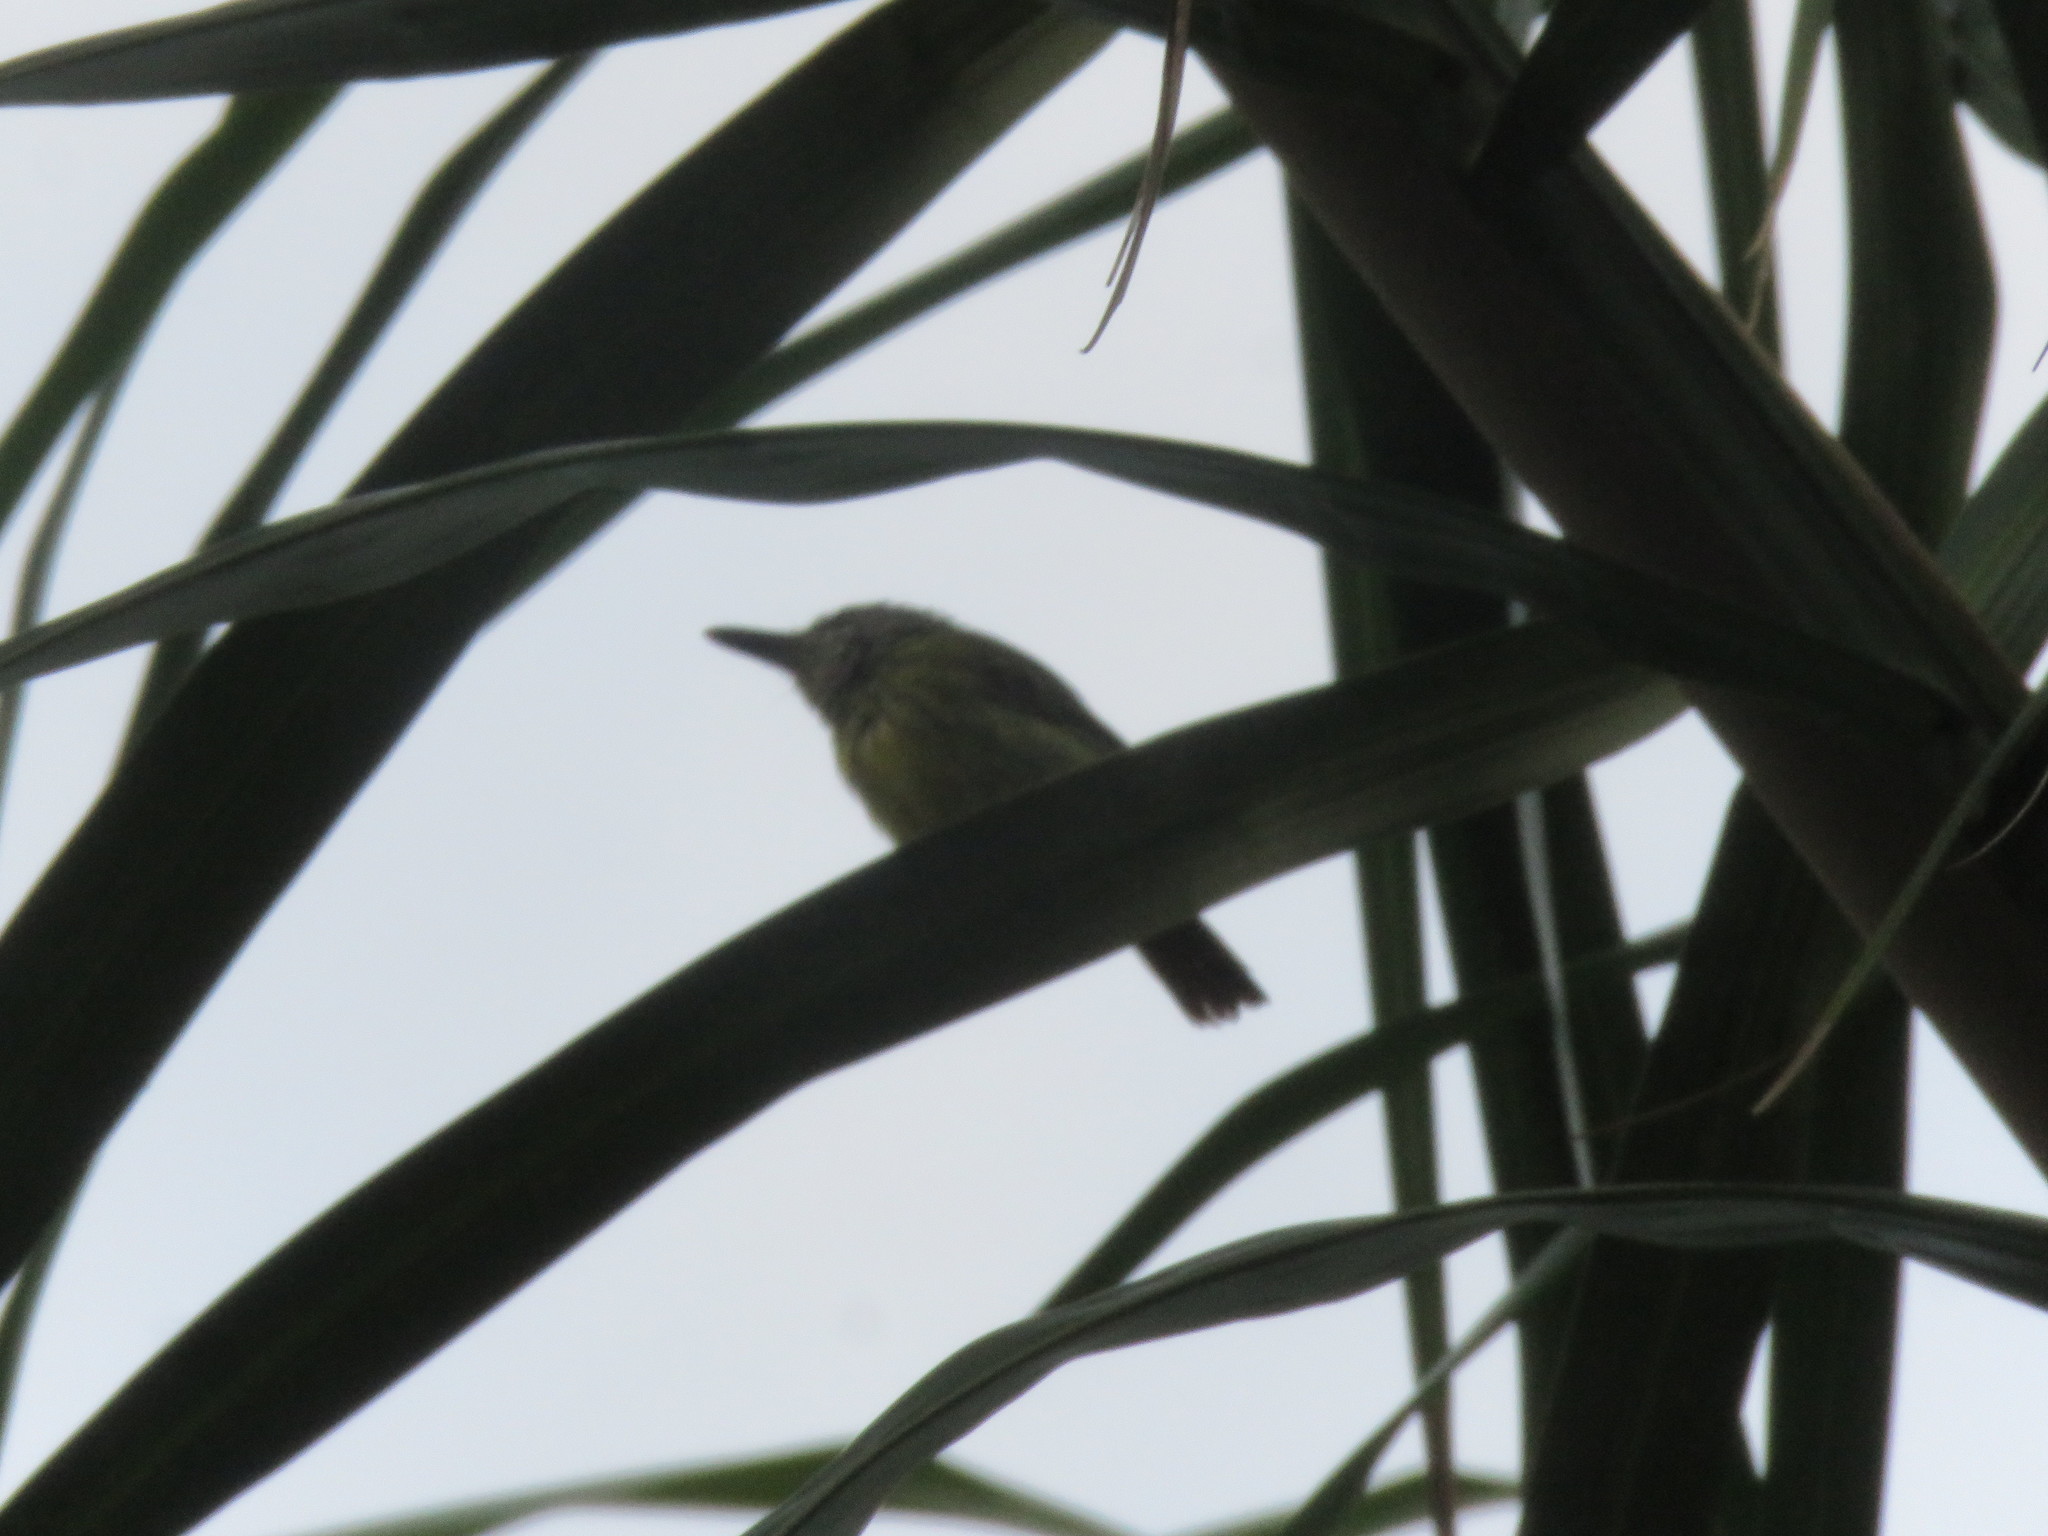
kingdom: Animalia
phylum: Chordata
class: Aves
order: Passeriformes
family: Tyrannidae
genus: Todirostrum
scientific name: Todirostrum maculatum
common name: Spotted tody-flycatcher
